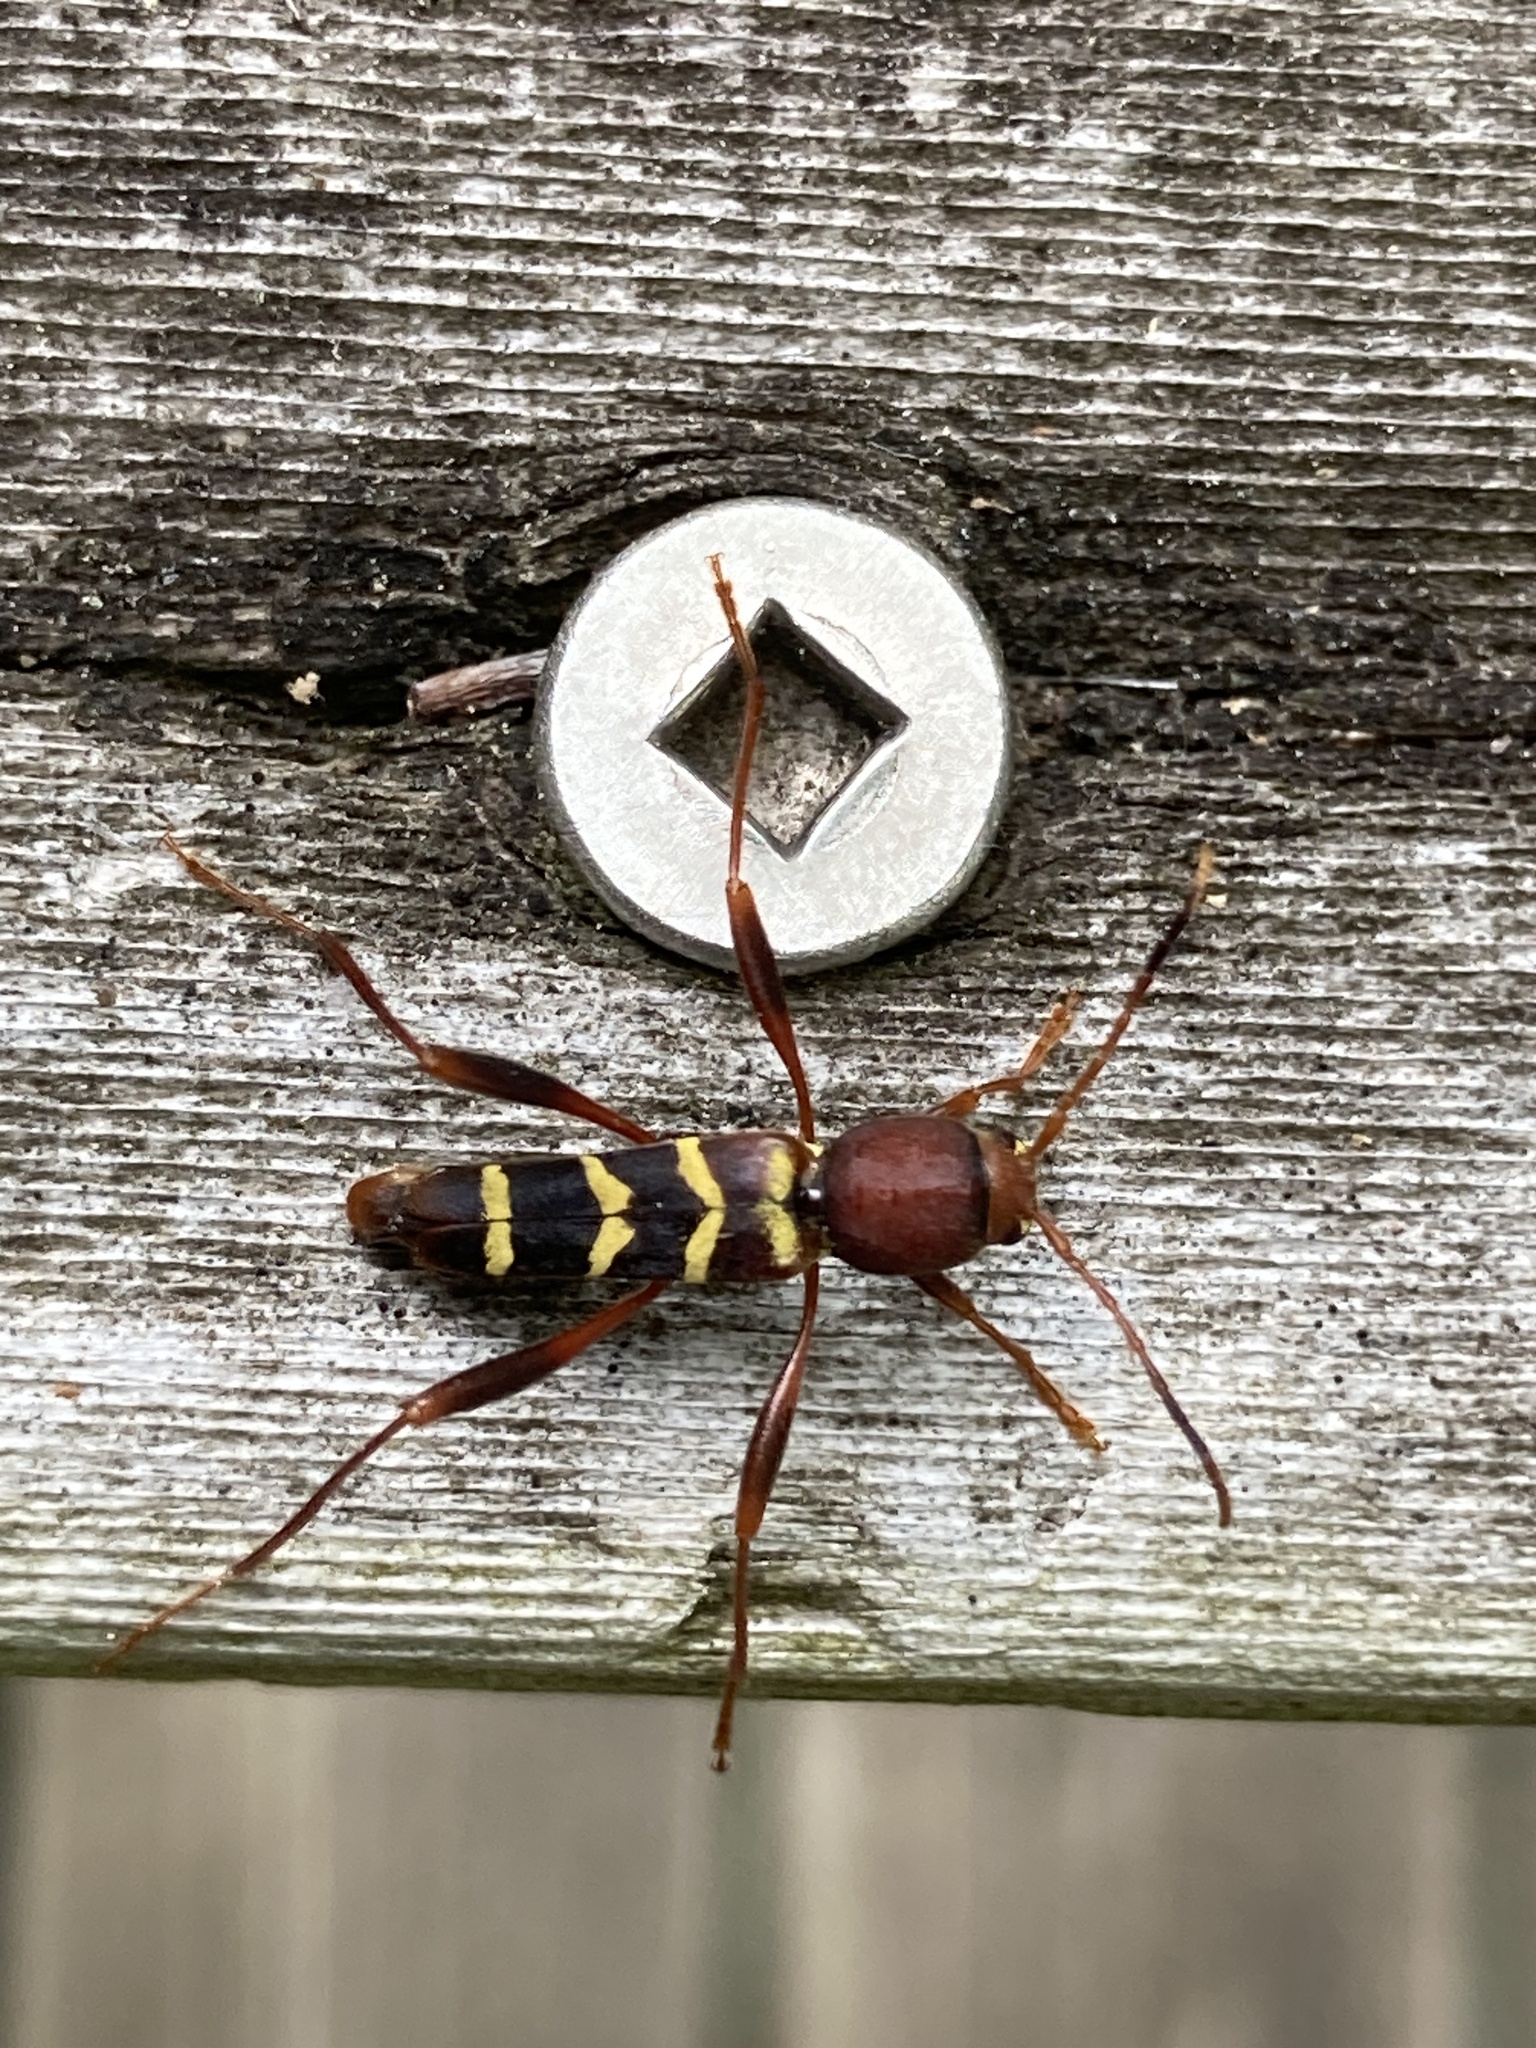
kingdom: Animalia
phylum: Arthropoda
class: Insecta
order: Coleoptera
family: Cerambycidae
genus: Neoclytus
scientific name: Neoclytus acuminatus
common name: Read-headed ash borer
